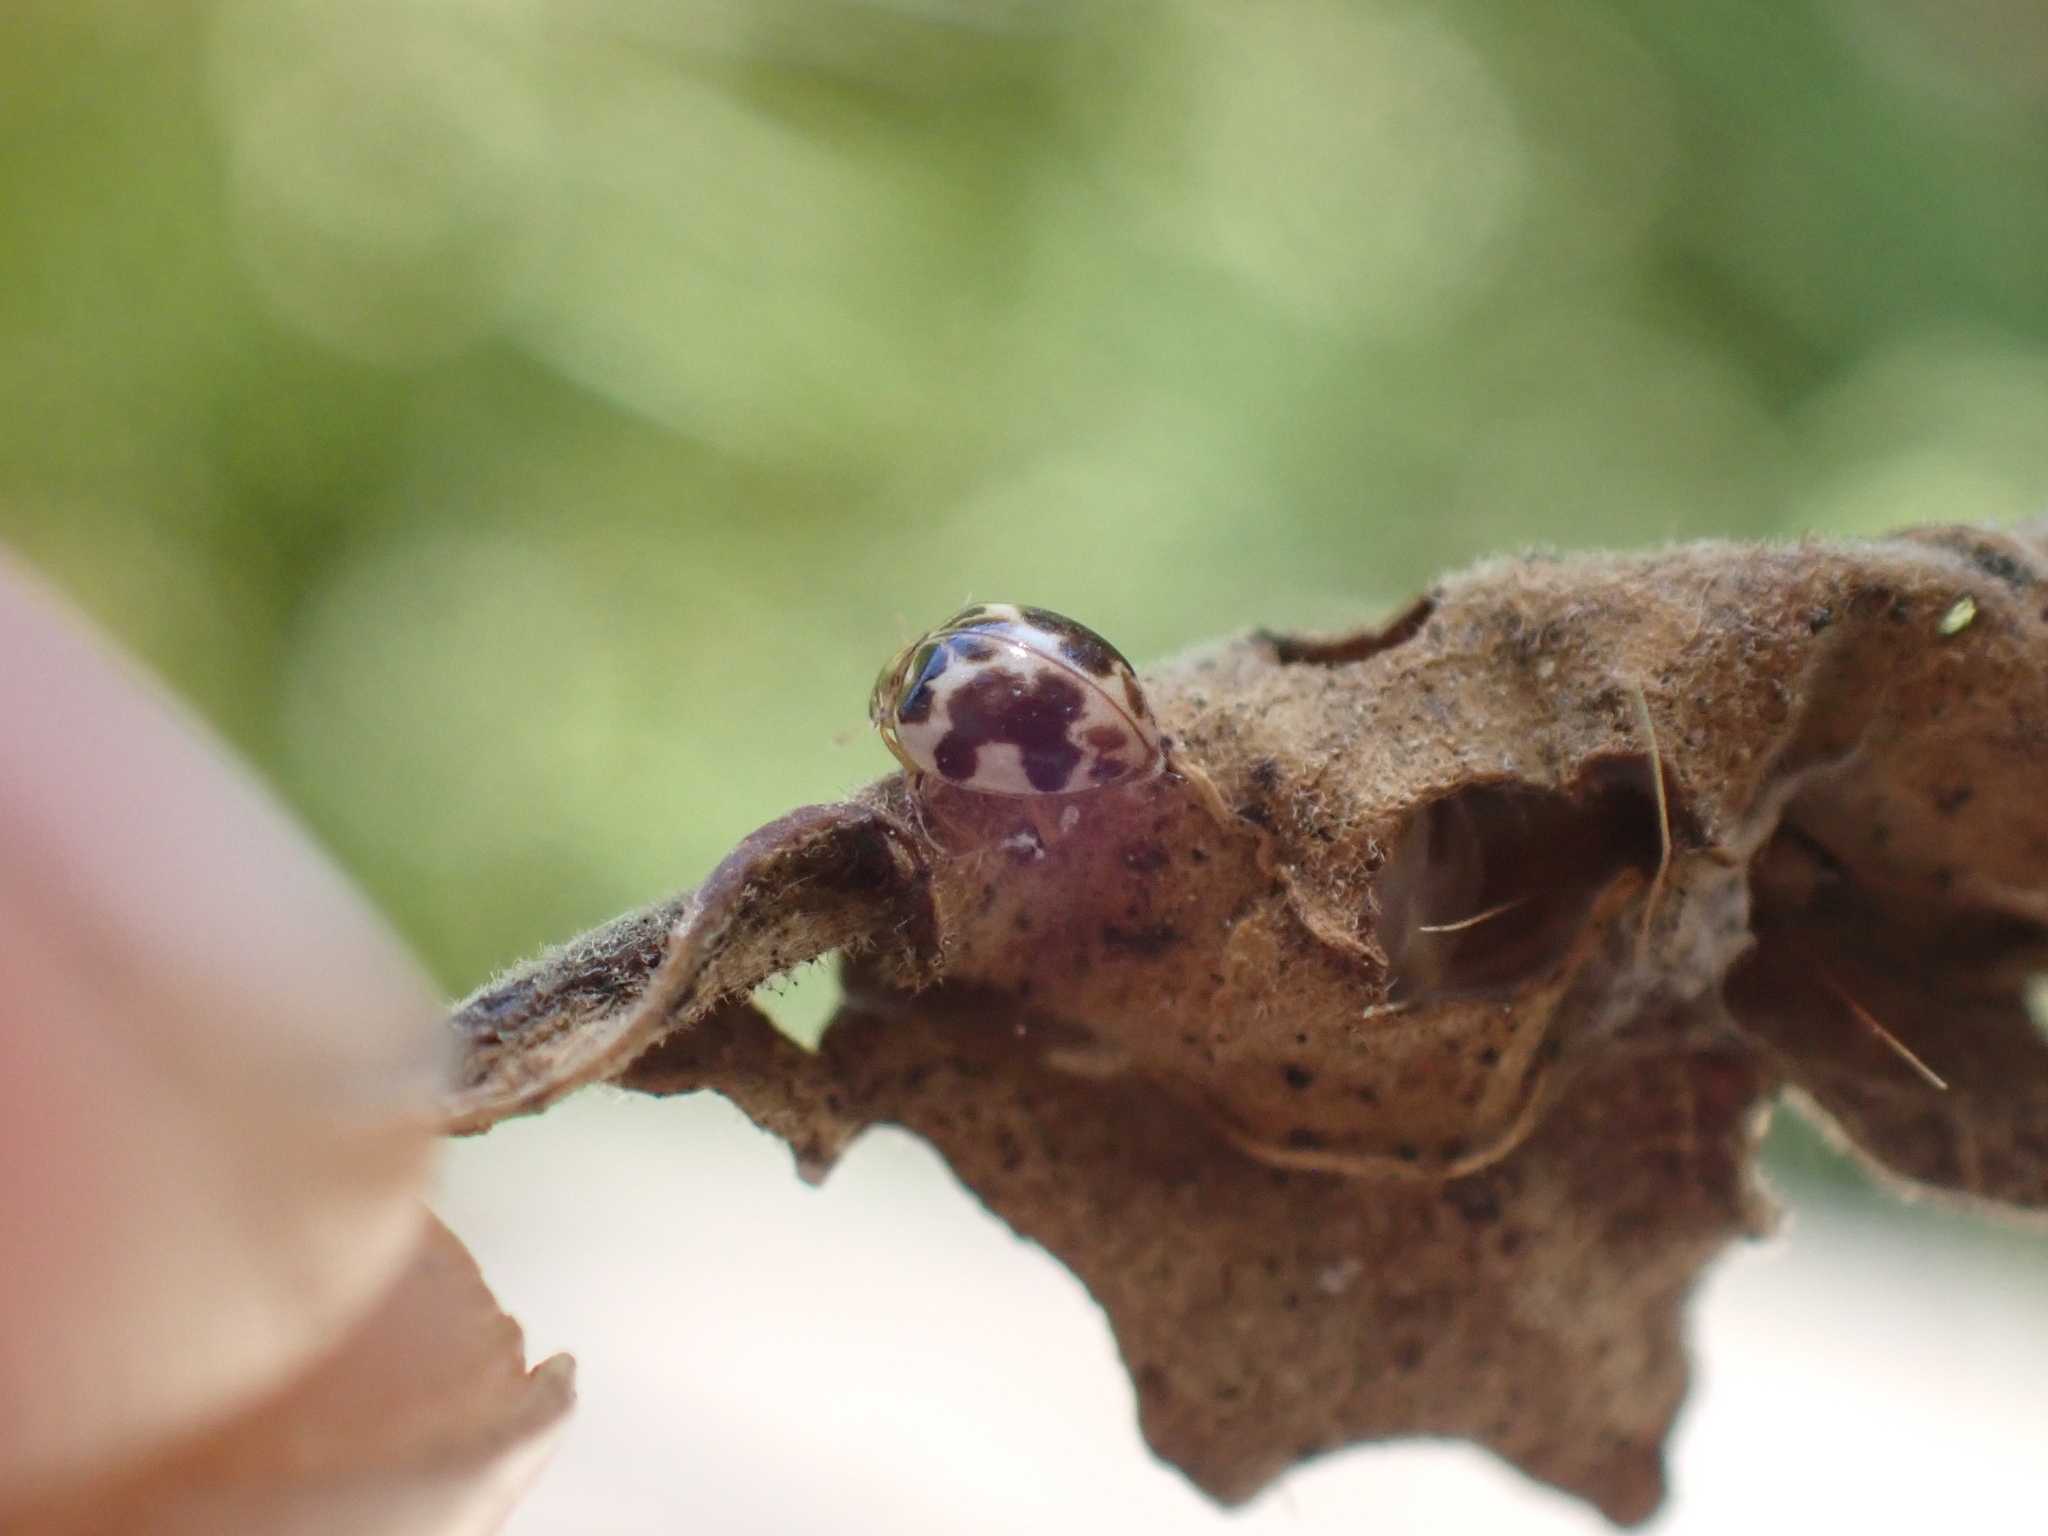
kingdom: Animalia
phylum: Arthropoda
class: Insecta
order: Coleoptera
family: Coccinellidae
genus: Psyllobora
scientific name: Psyllobora vigintimaculata
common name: Ladybird beetle
